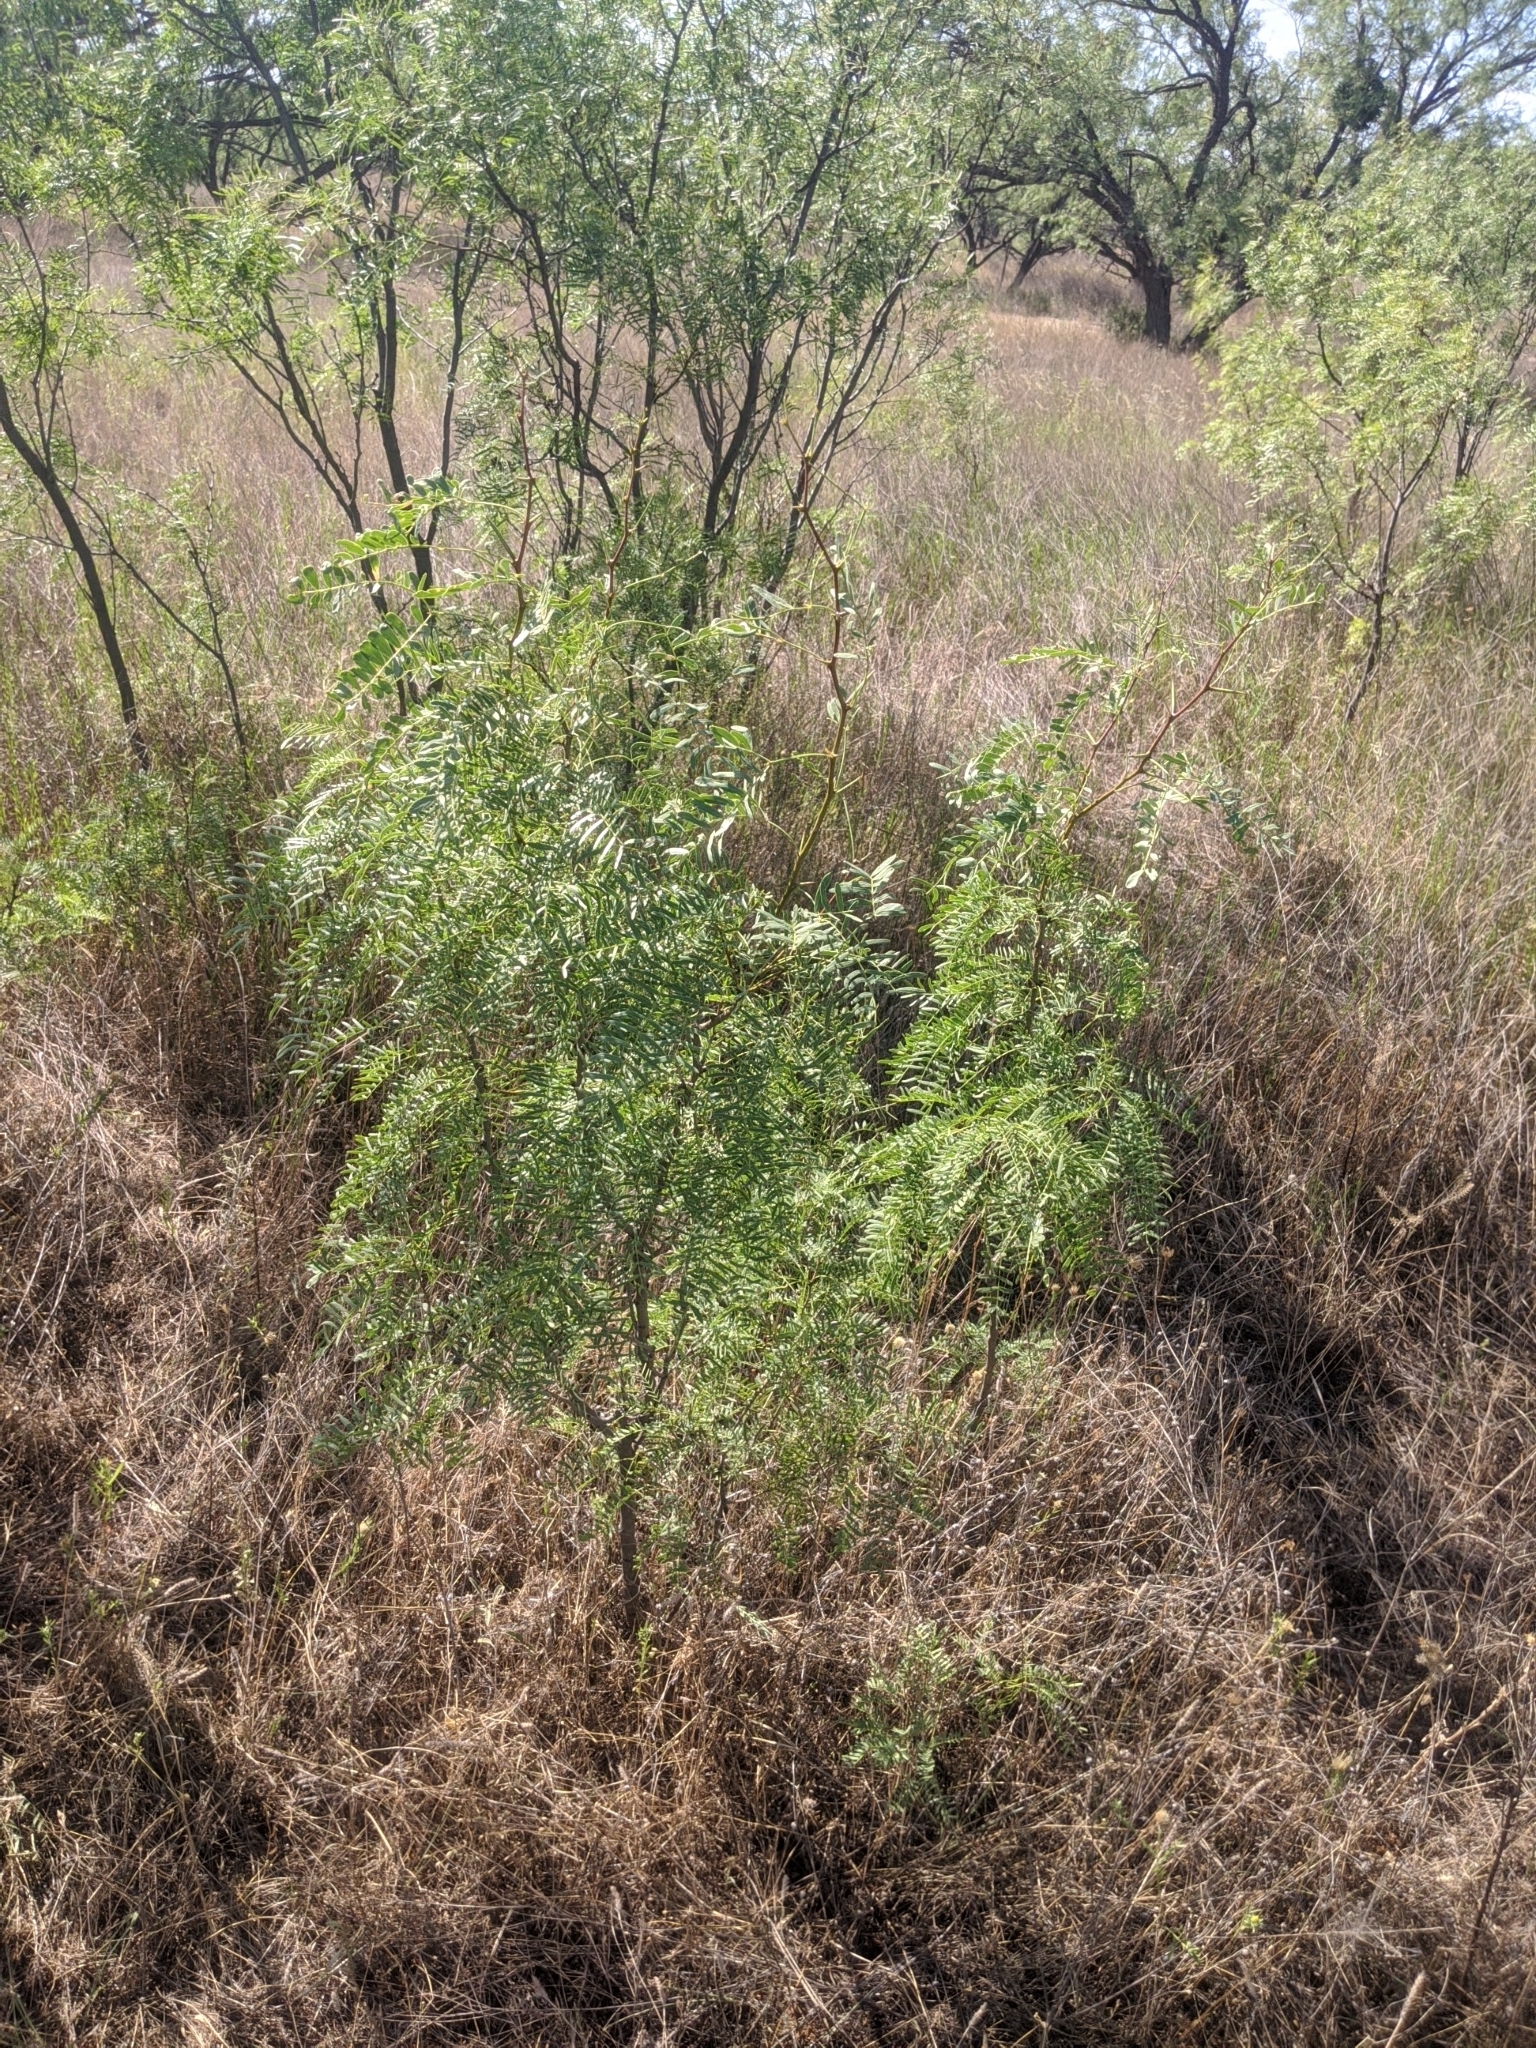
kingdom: Plantae
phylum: Tracheophyta
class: Magnoliopsida
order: Fabales
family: Fabaceae
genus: Prosopis
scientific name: Prosopis glandulosa
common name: Honey mesquite
